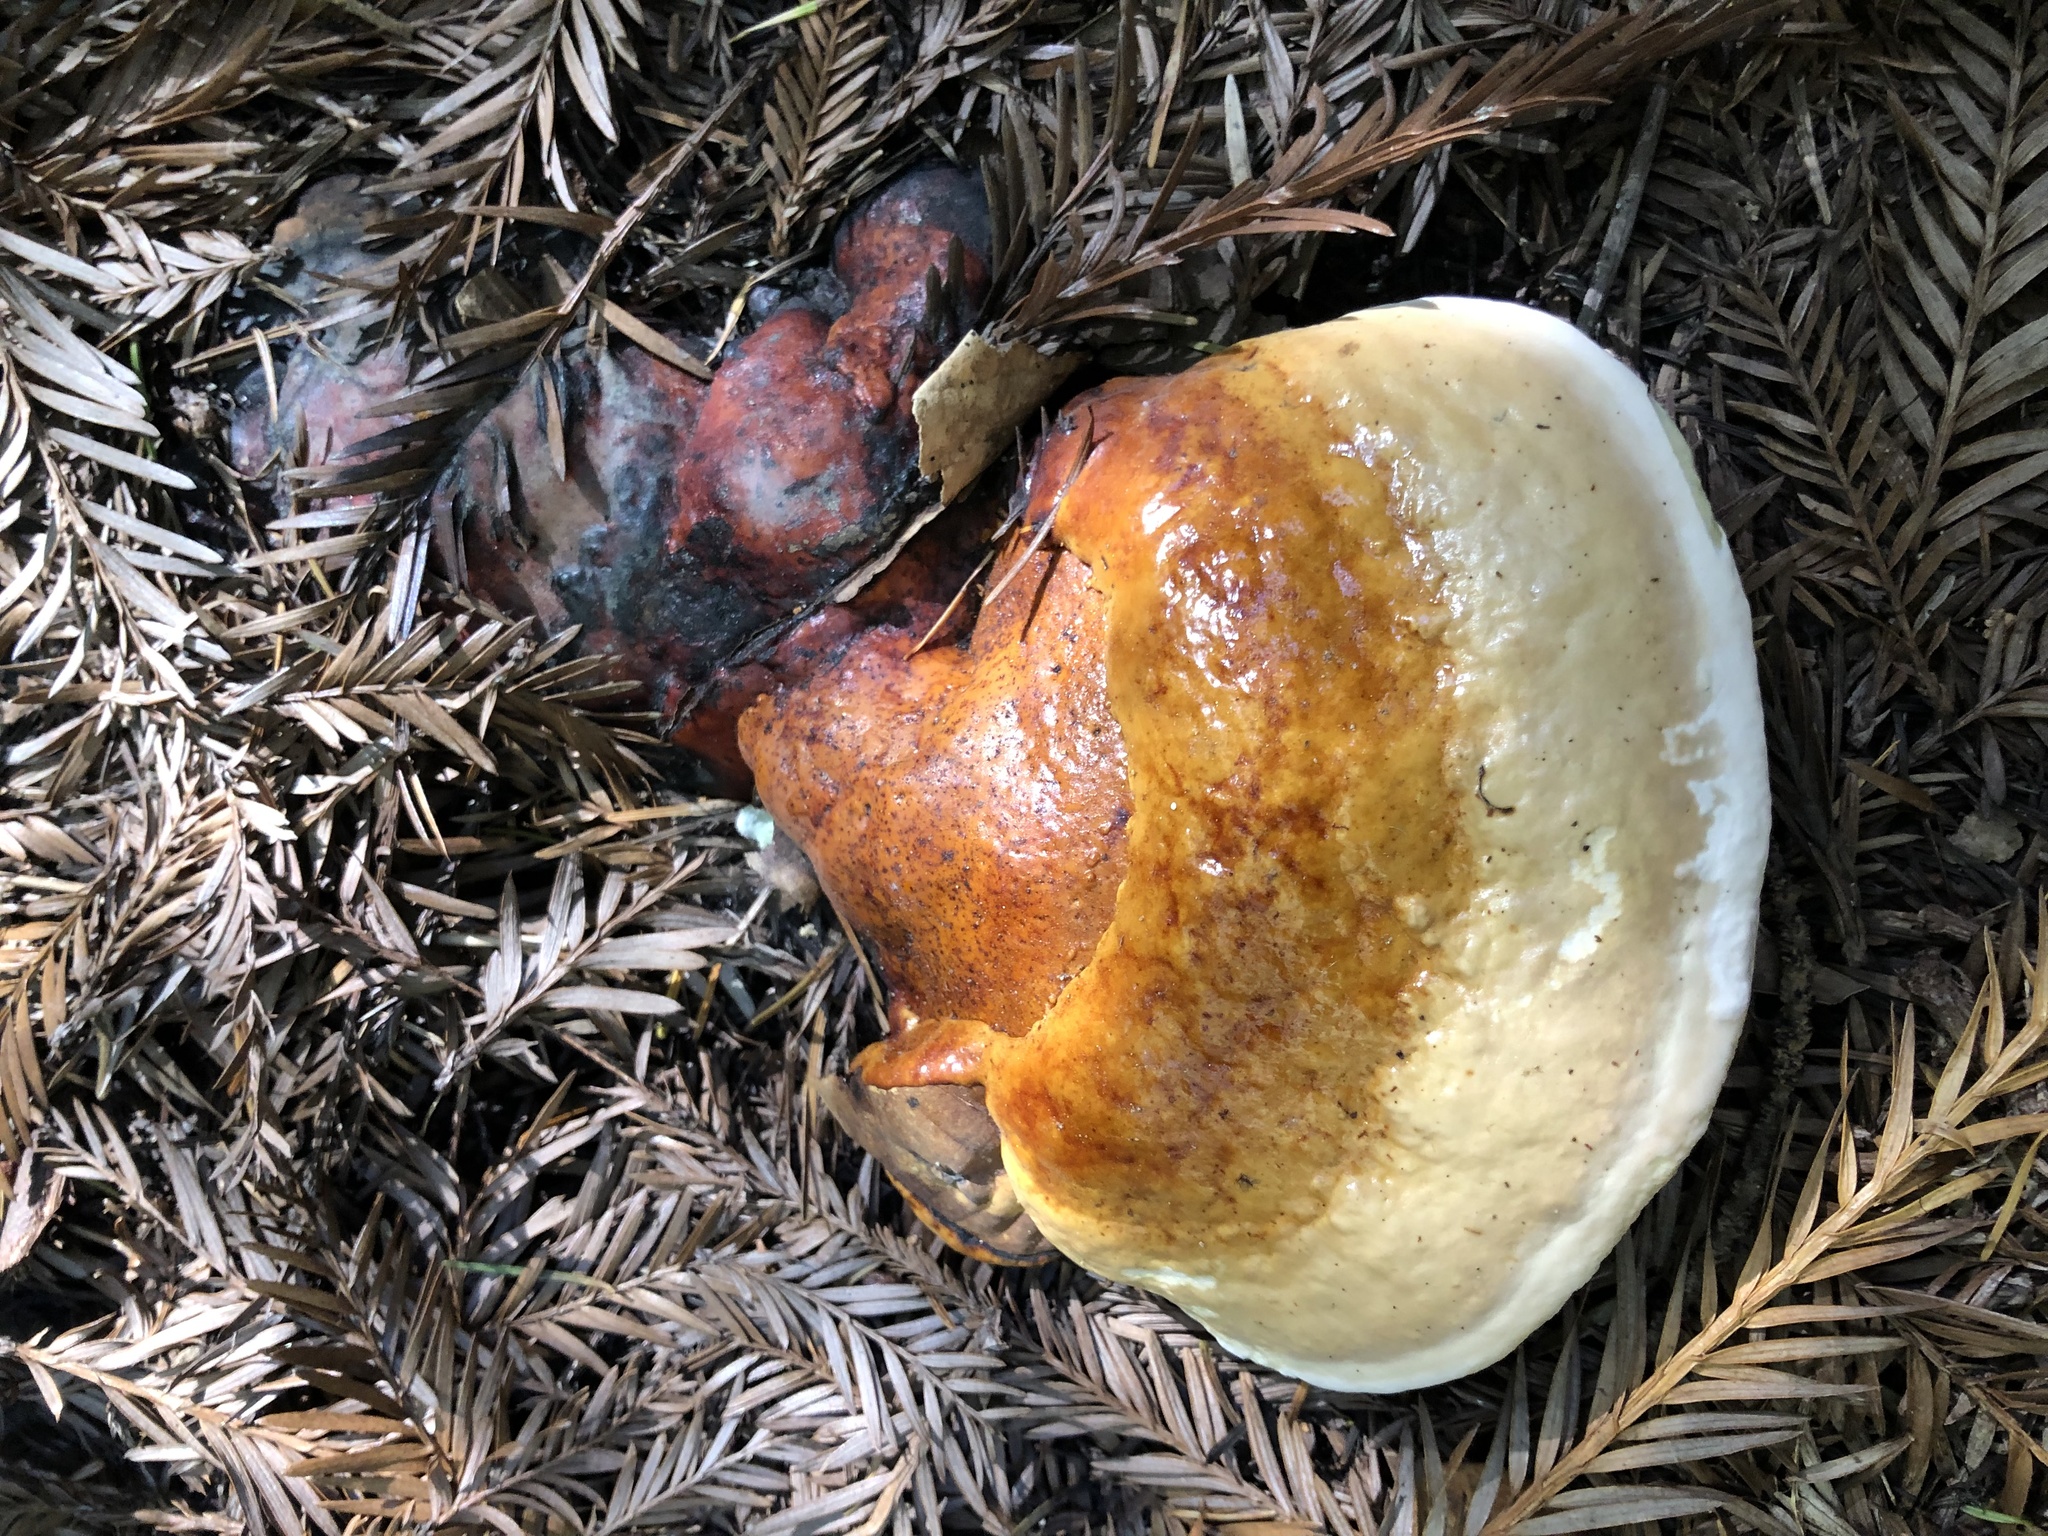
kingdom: Fungi
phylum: Basidiomycota
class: Agaricomycetes
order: Polyporales
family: Fomitopsidaceae
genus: Fomitopsis
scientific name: Fomitopsis mounceae
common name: Northern red belt
